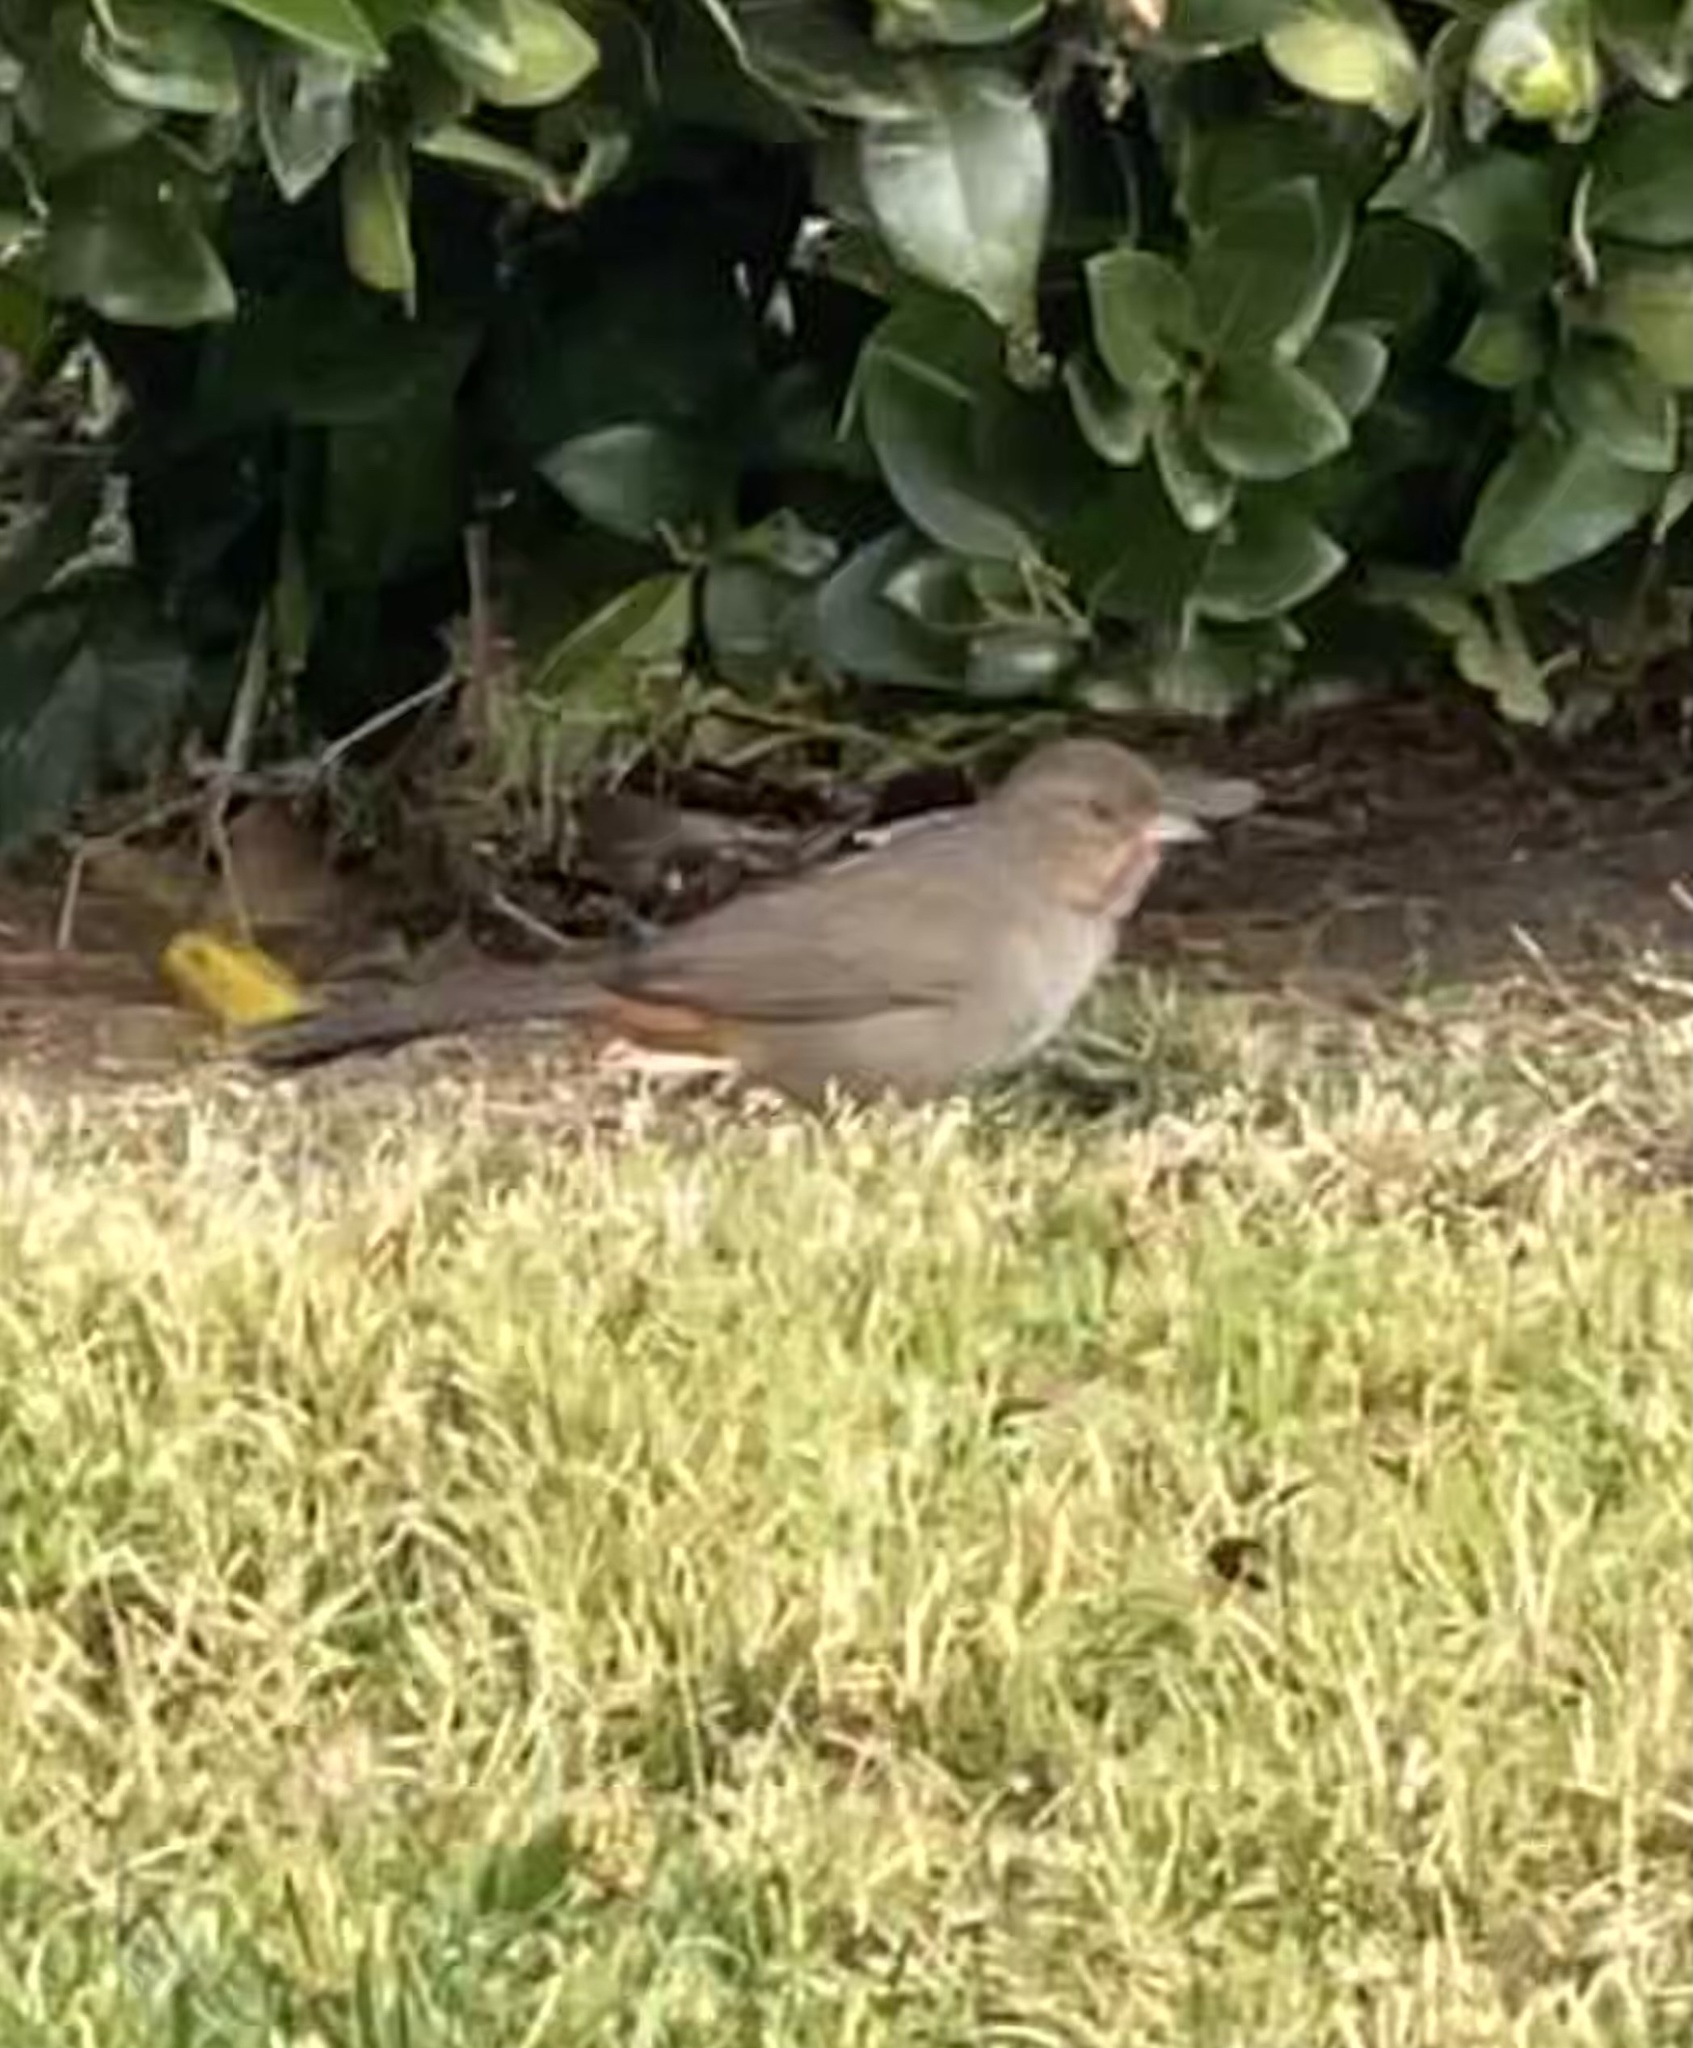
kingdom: Animalia
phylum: Chordata
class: Aves
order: Passeriformes
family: Passerellidae
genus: Melozone
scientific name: Melozone crissalis
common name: California towhee
